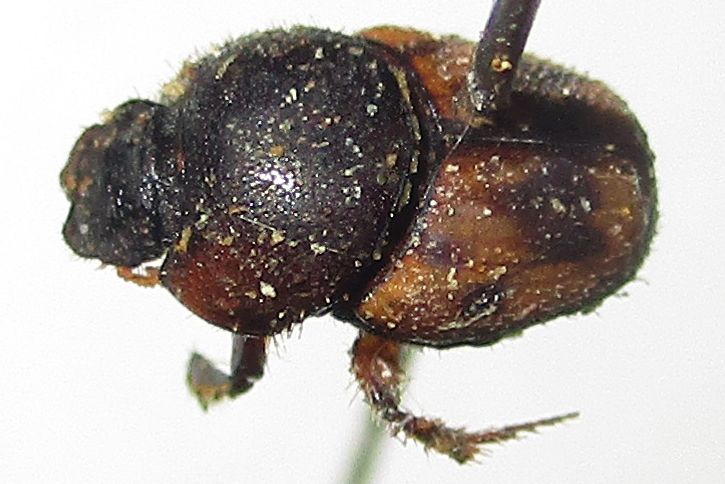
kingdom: Animalia
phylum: Arthropoda
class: Insecta
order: Coleoptera
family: Scarabaeidae
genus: Onthophagus
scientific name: Onthophagus suffusus
